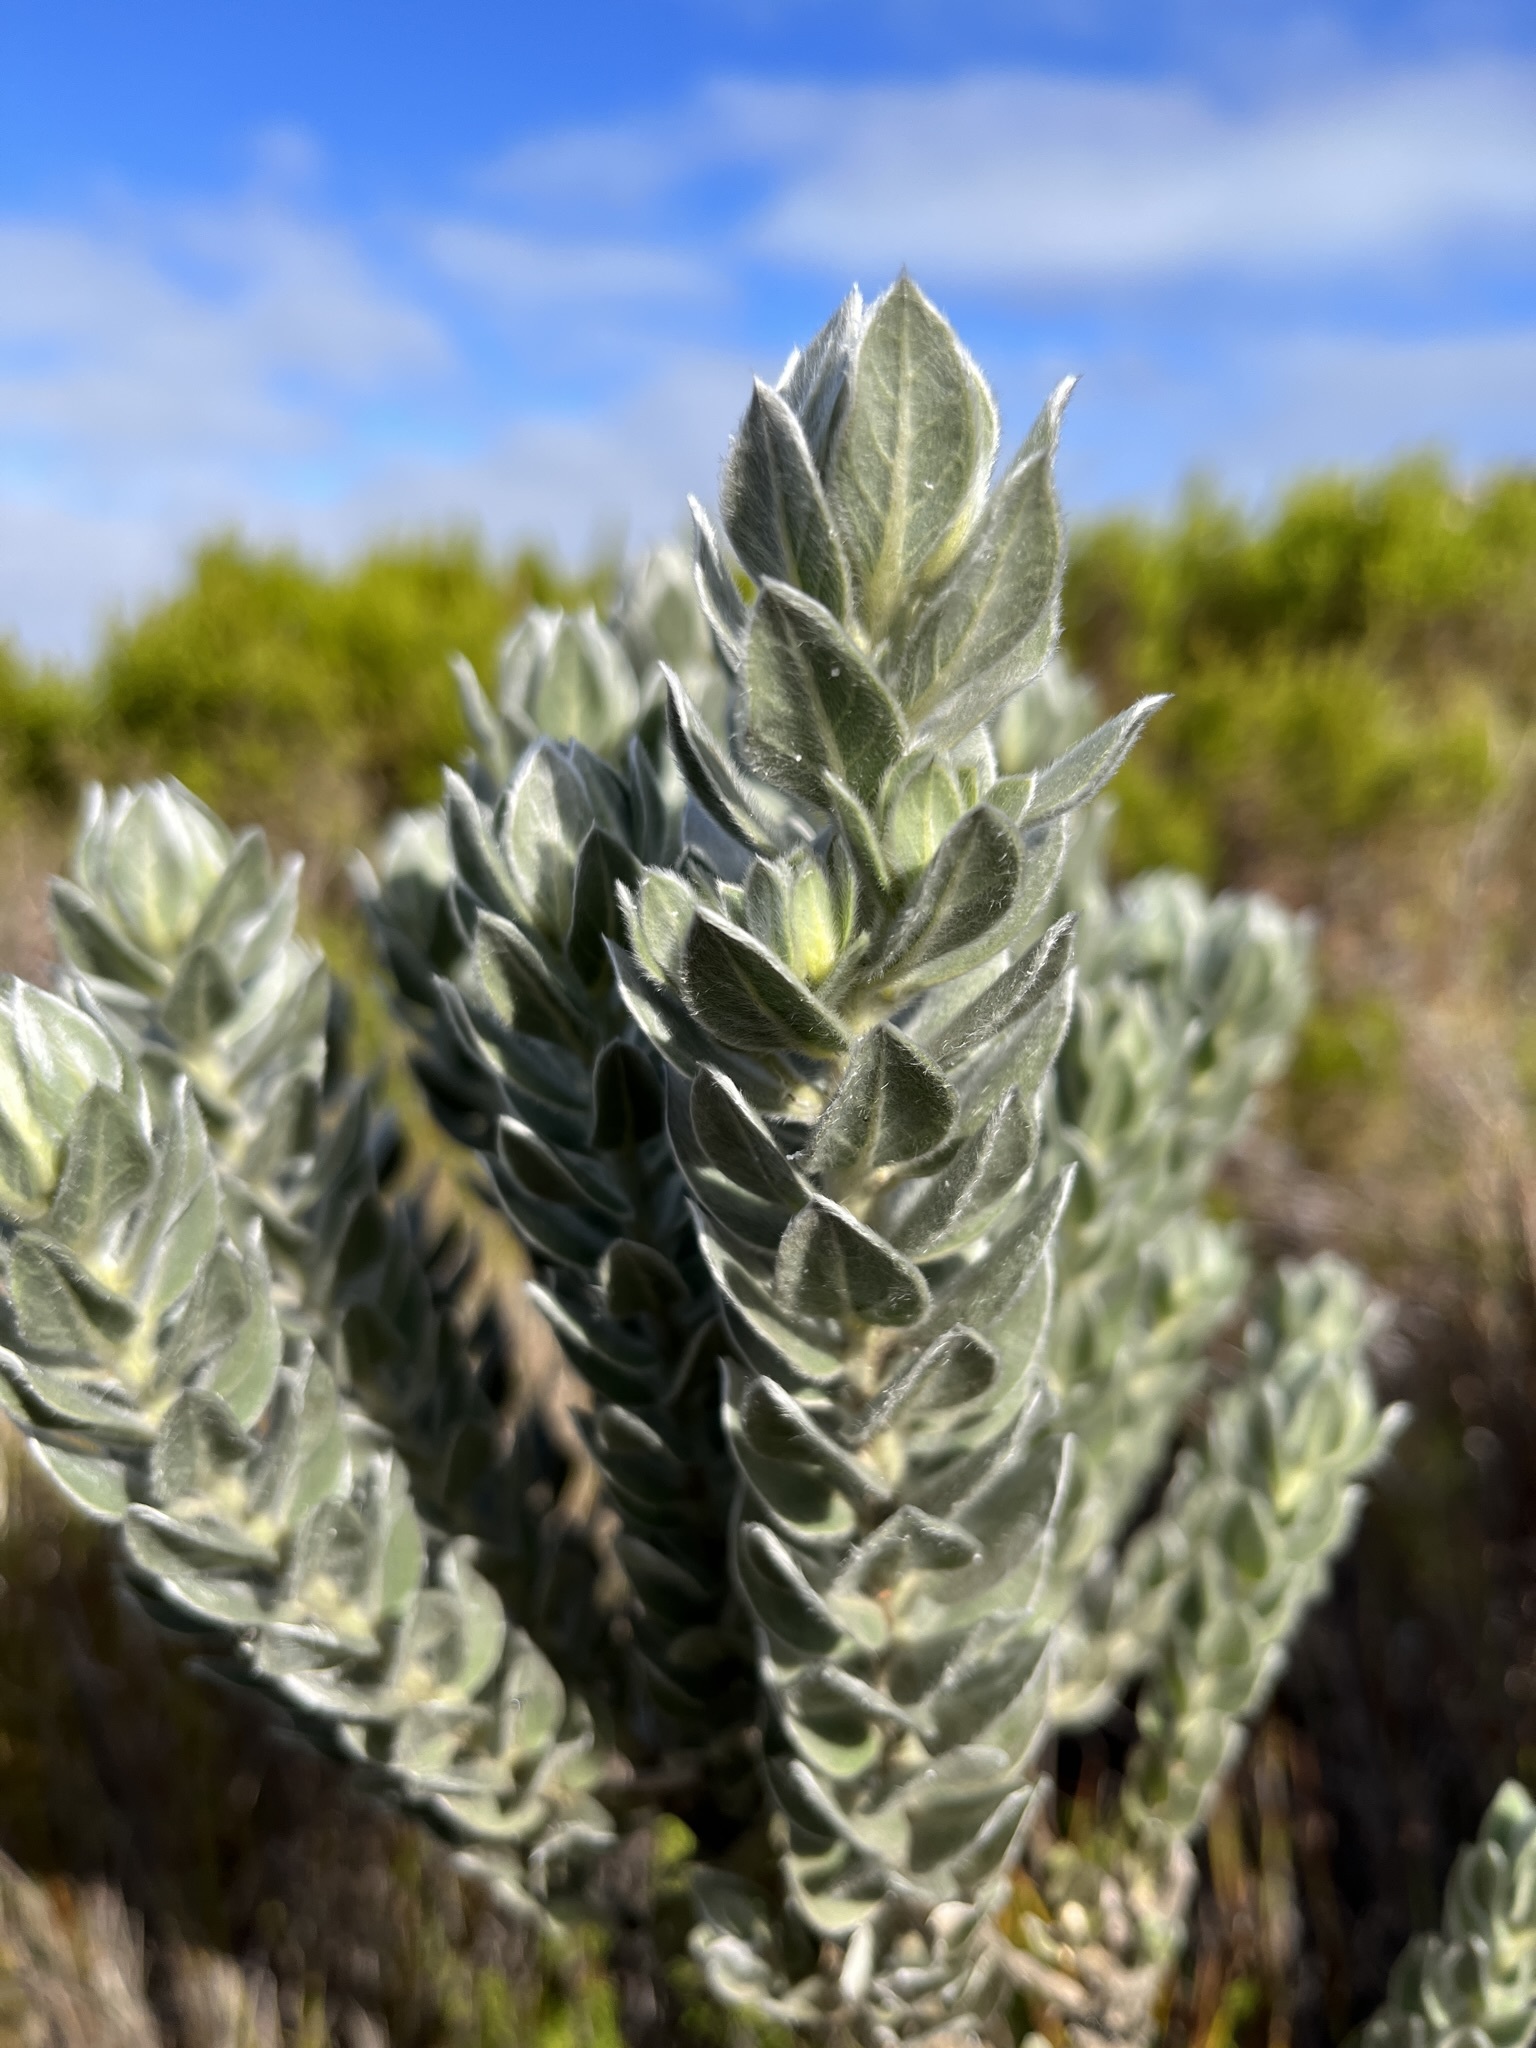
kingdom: Plantae
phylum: Tracheophyta
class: Magnoliopsida
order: Fabales
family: Fabaceae
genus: Xiphotheca
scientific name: Xiphotheca fruticosa
